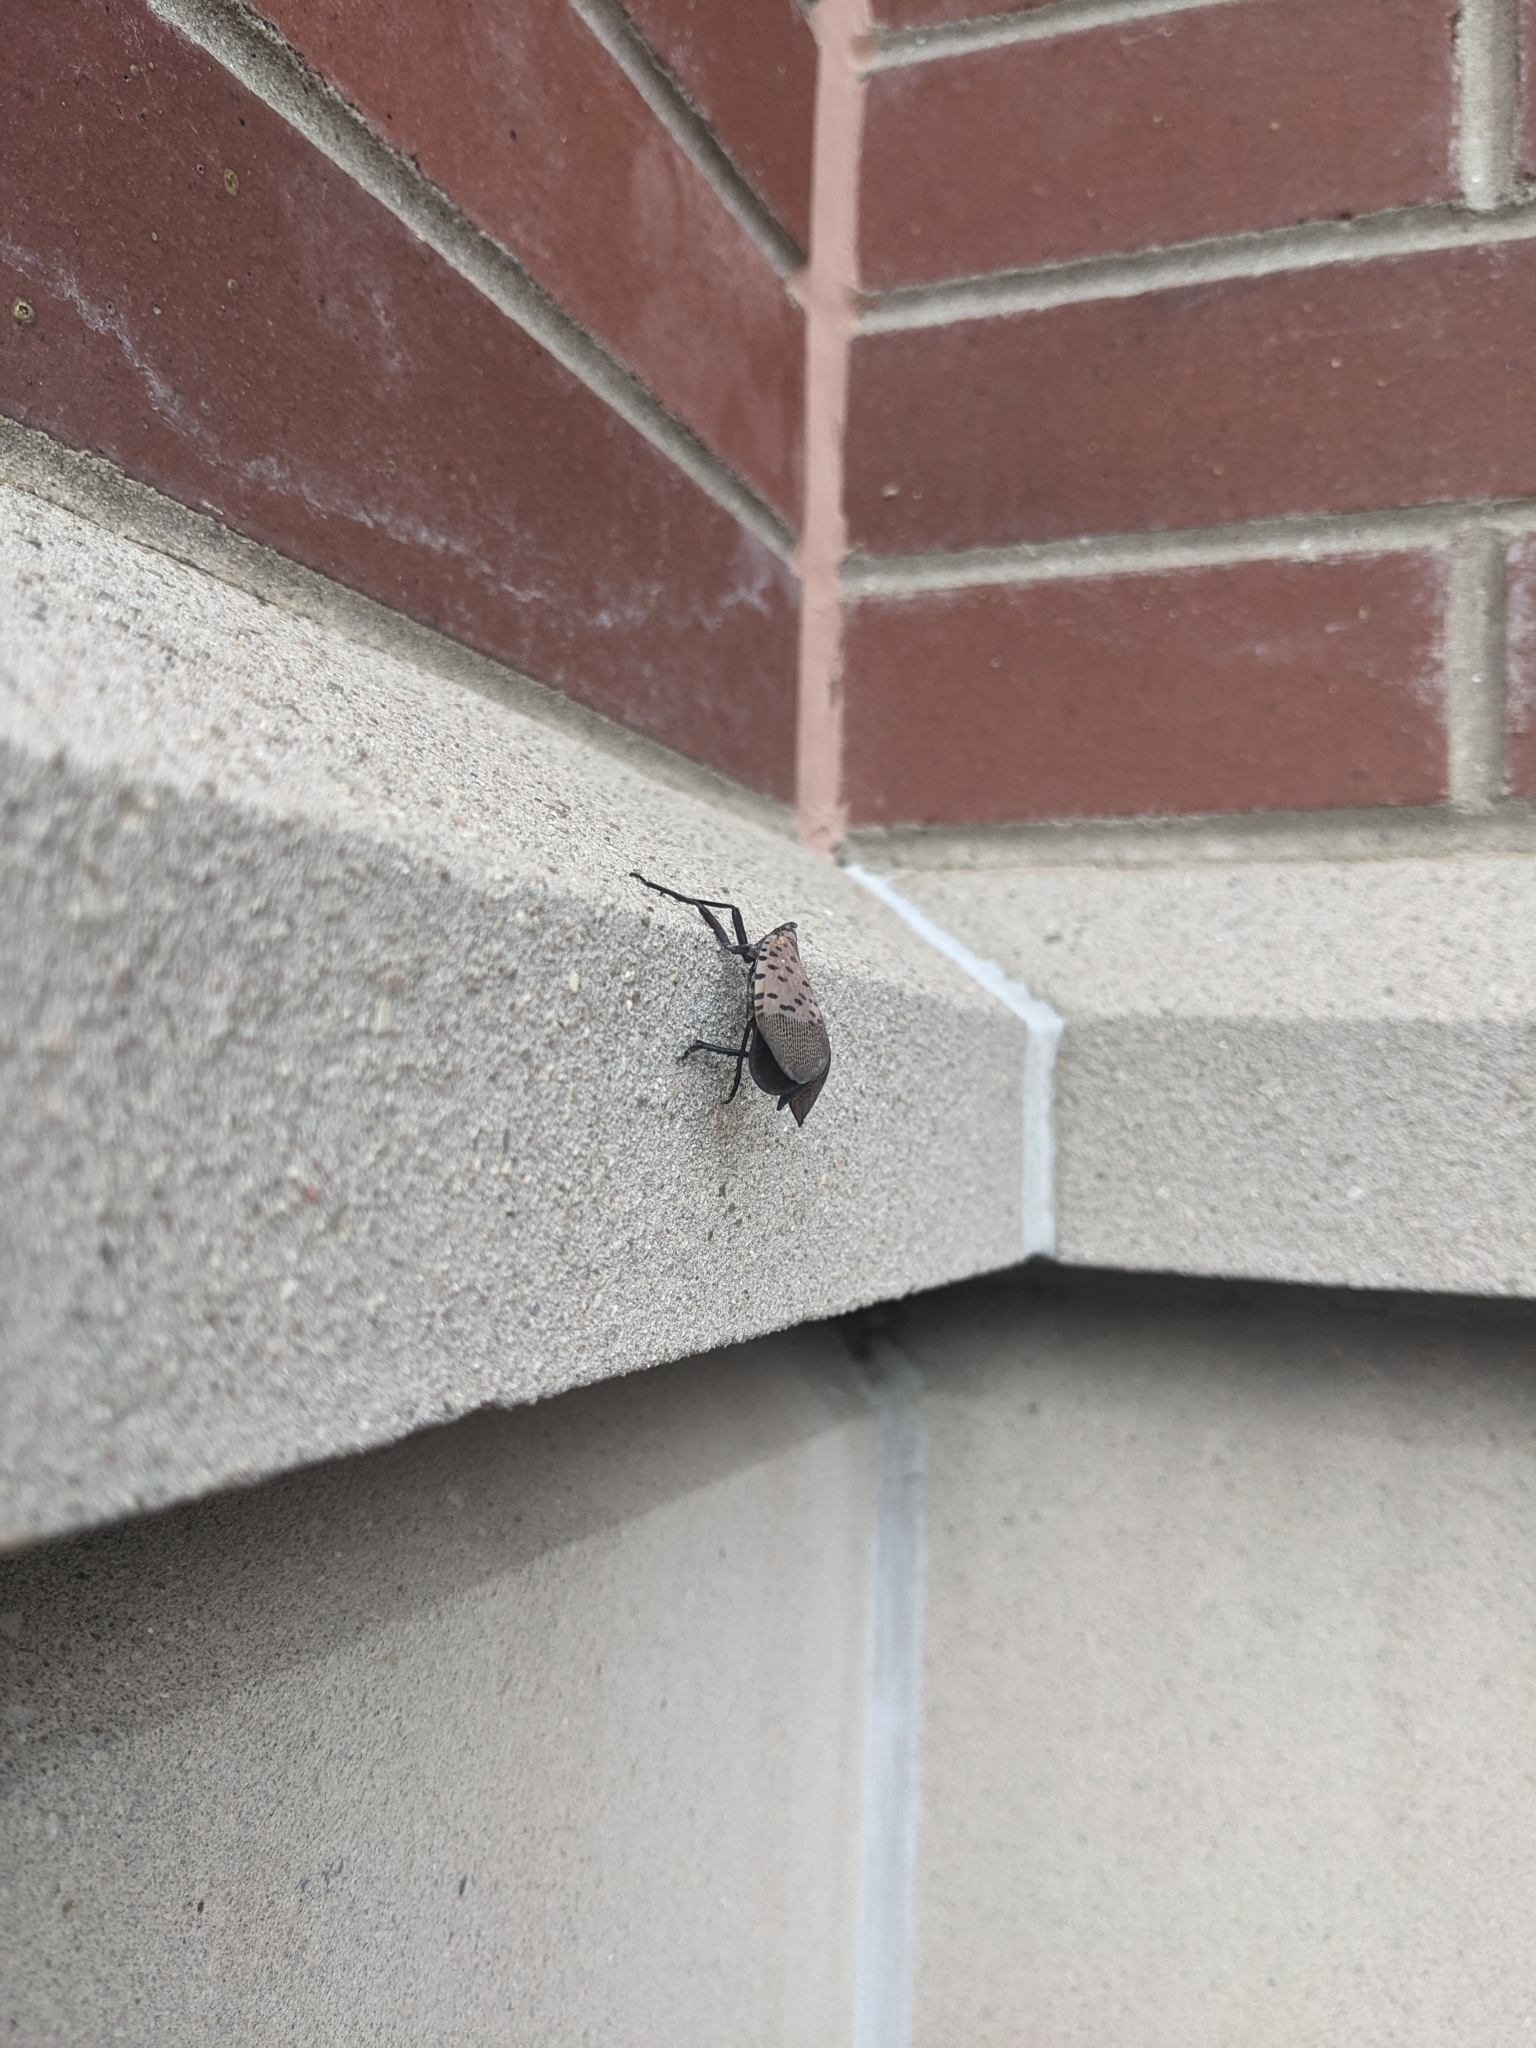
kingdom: Animalia
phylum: Arthropoda
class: Insecta
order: Hemiptera
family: Fulgoridae
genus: Lycorma
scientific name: Lycorma delicatula
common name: Spotted lanternfly
